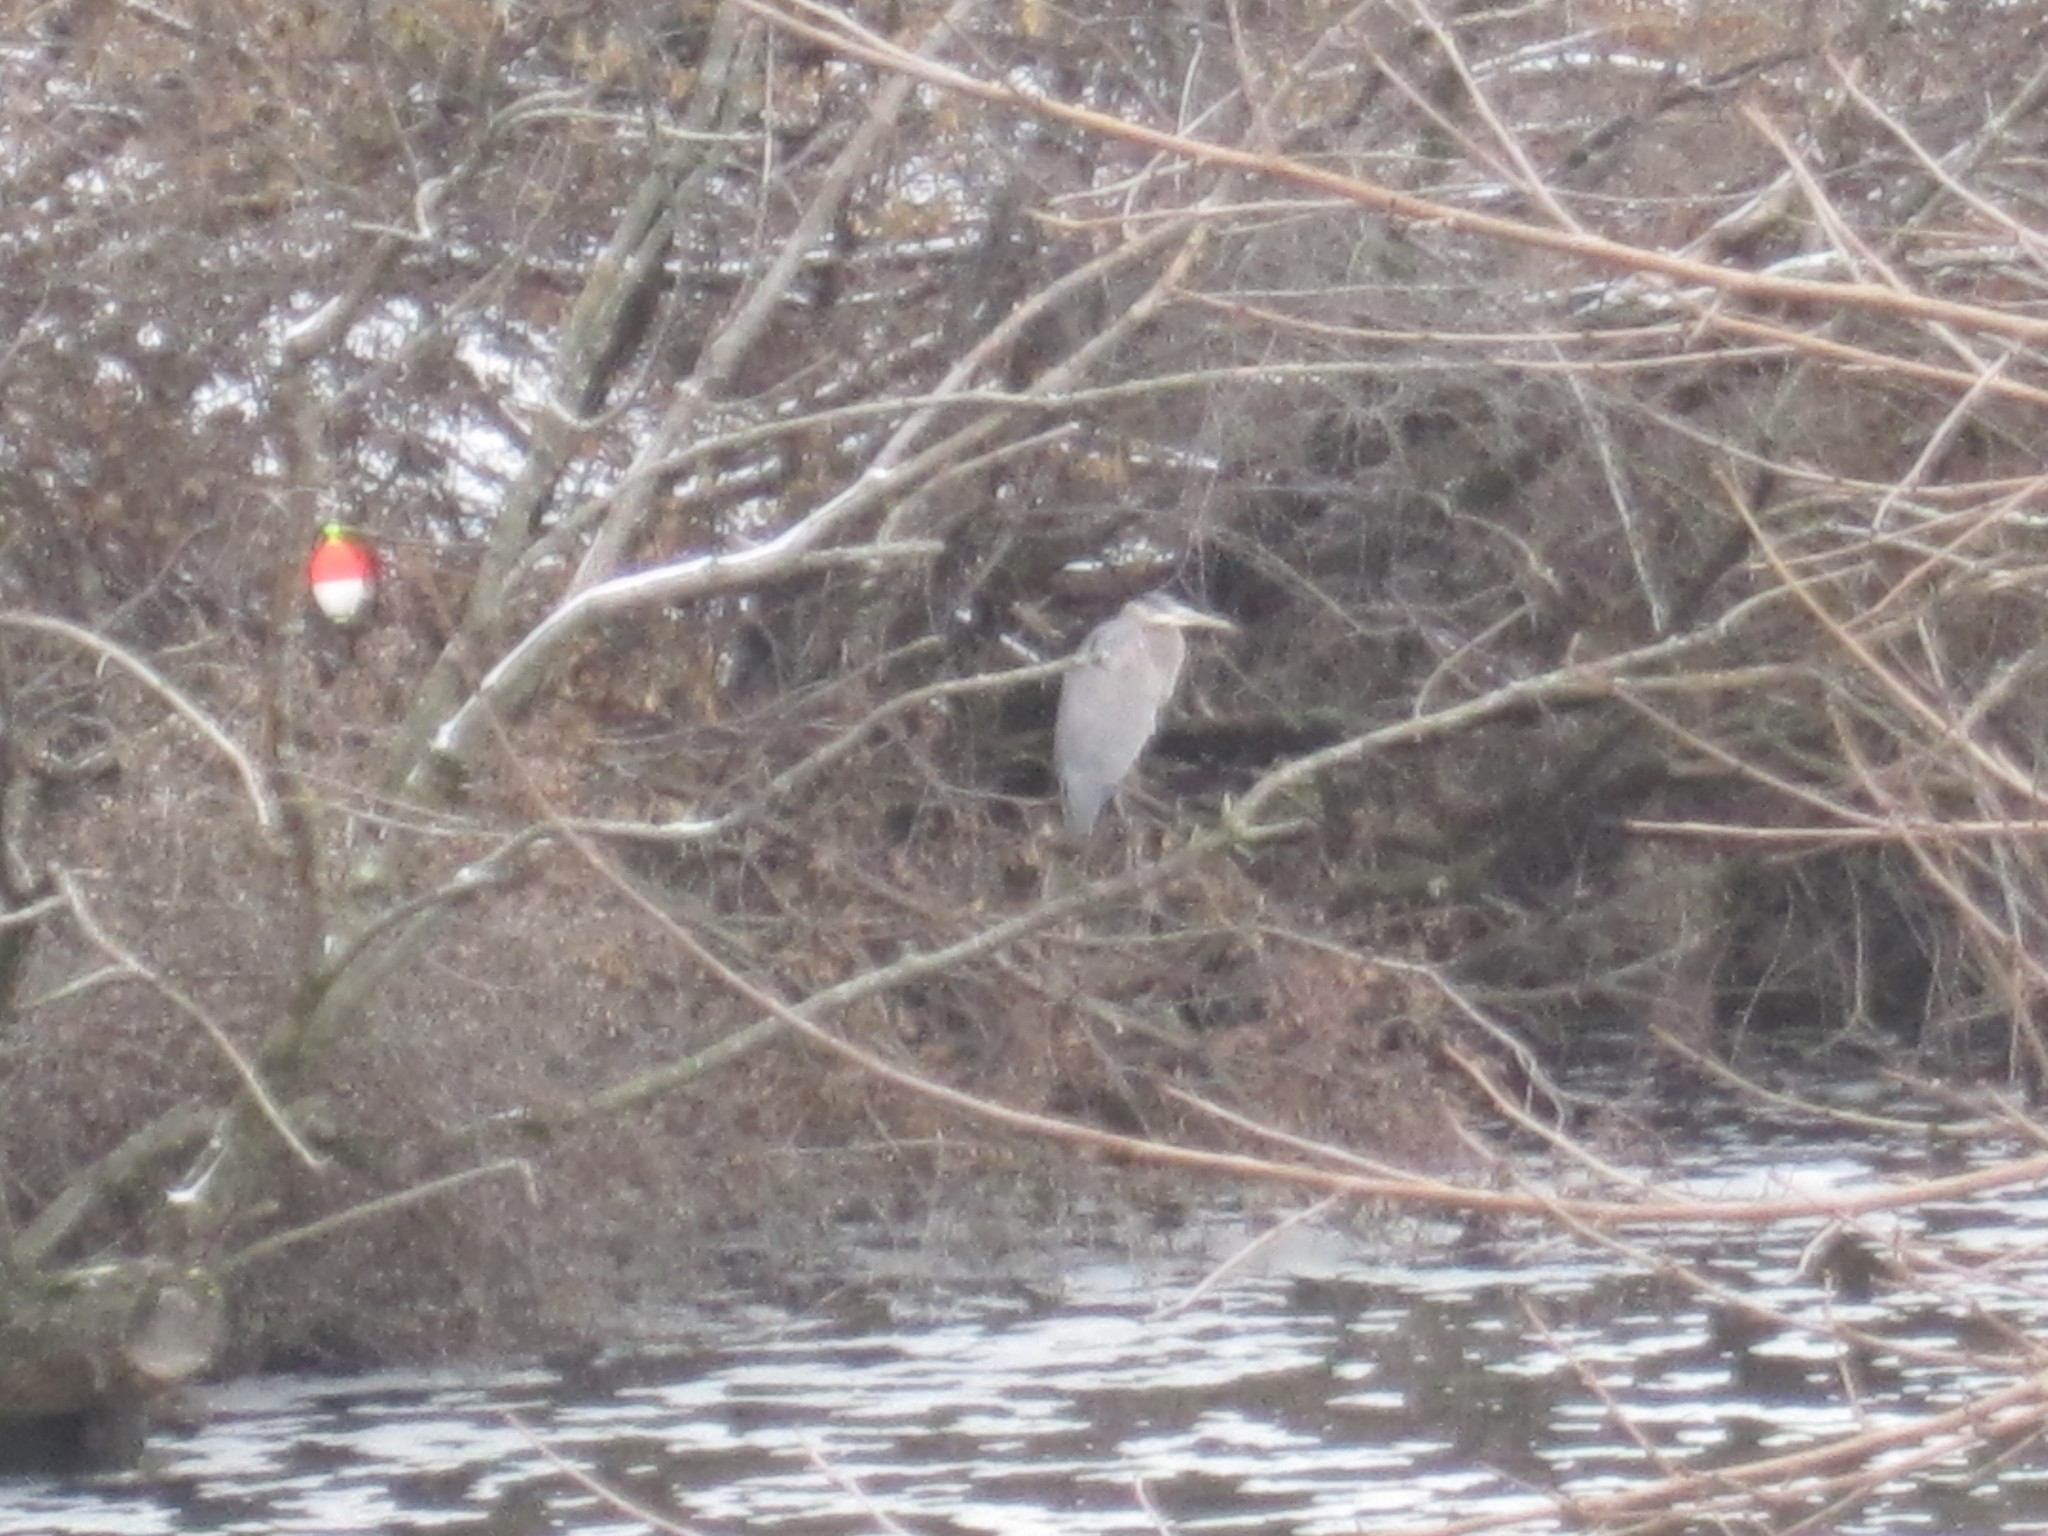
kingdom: Animalia
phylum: Chordata
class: Aves
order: Pelecaniformes
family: Ardeidae
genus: Ardea
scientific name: Ardea herodias
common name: Great blue heron
